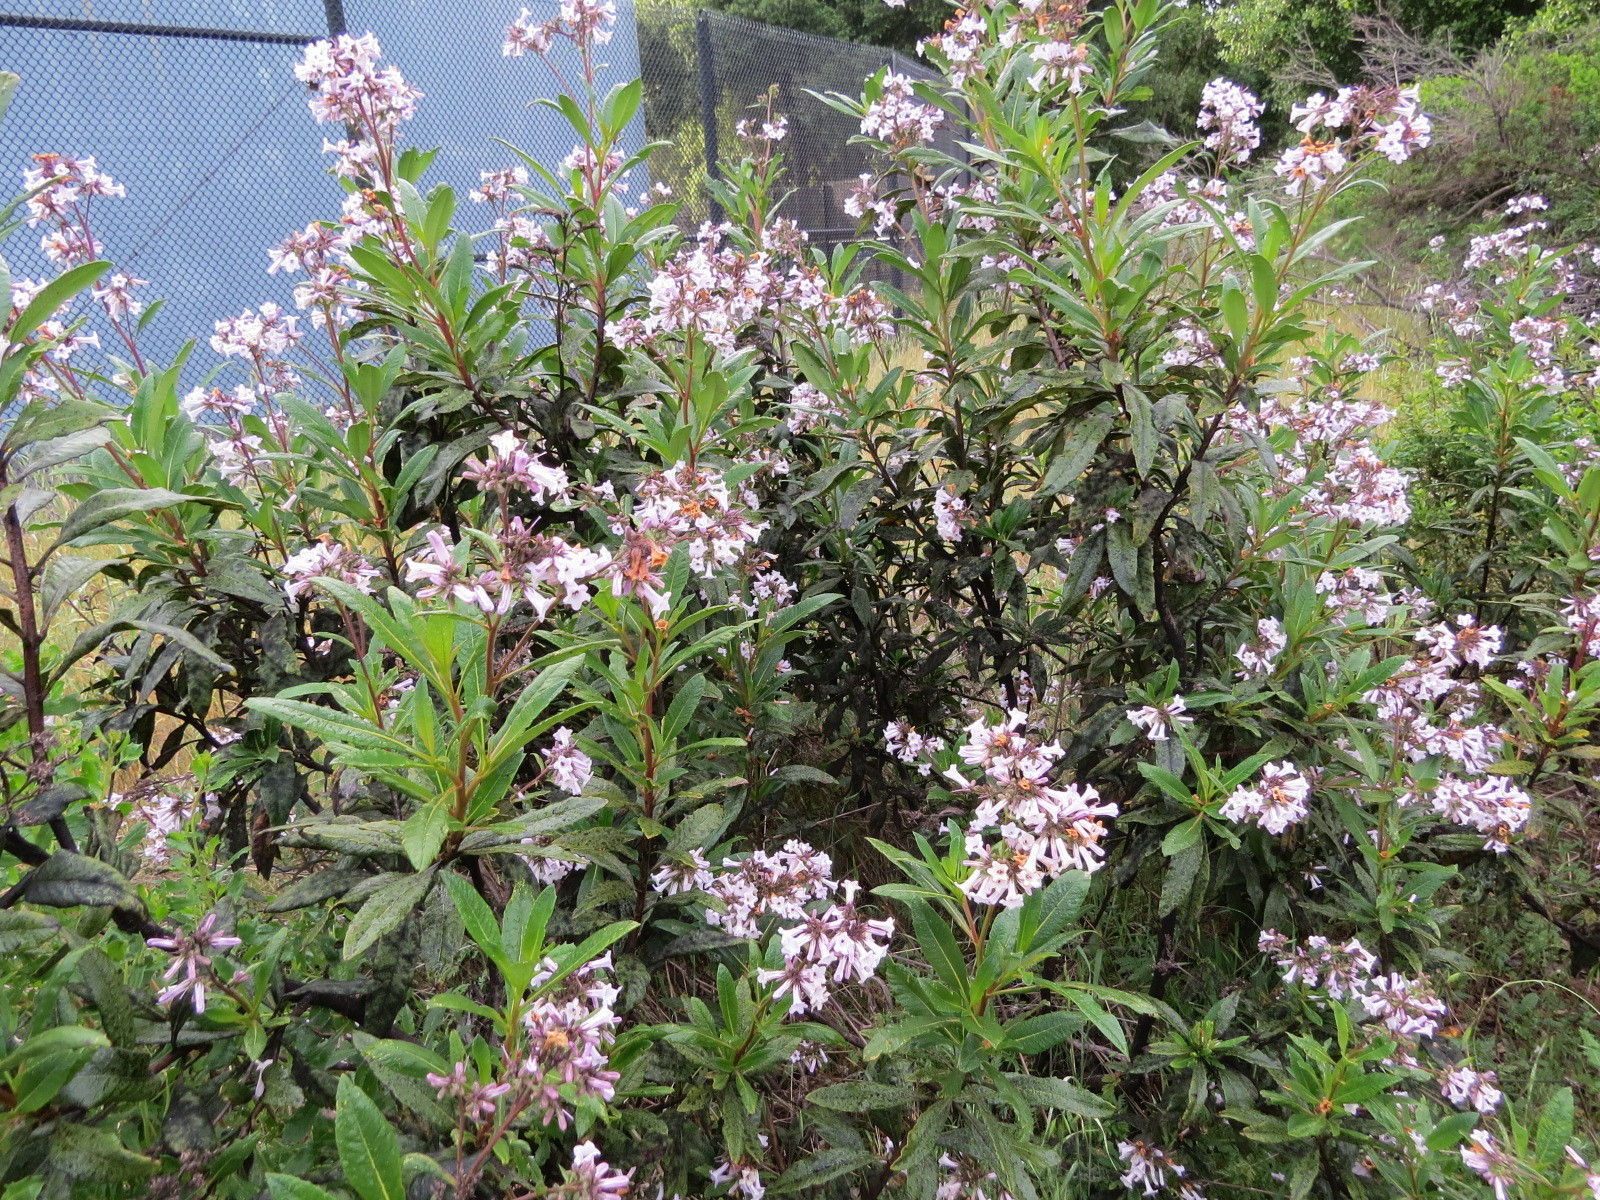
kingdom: Plantae
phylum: Tracheophyta
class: Magnoliopsida
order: Boraginales
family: Namaceae
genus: Eriodictyon
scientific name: Eriodictyon californicum
